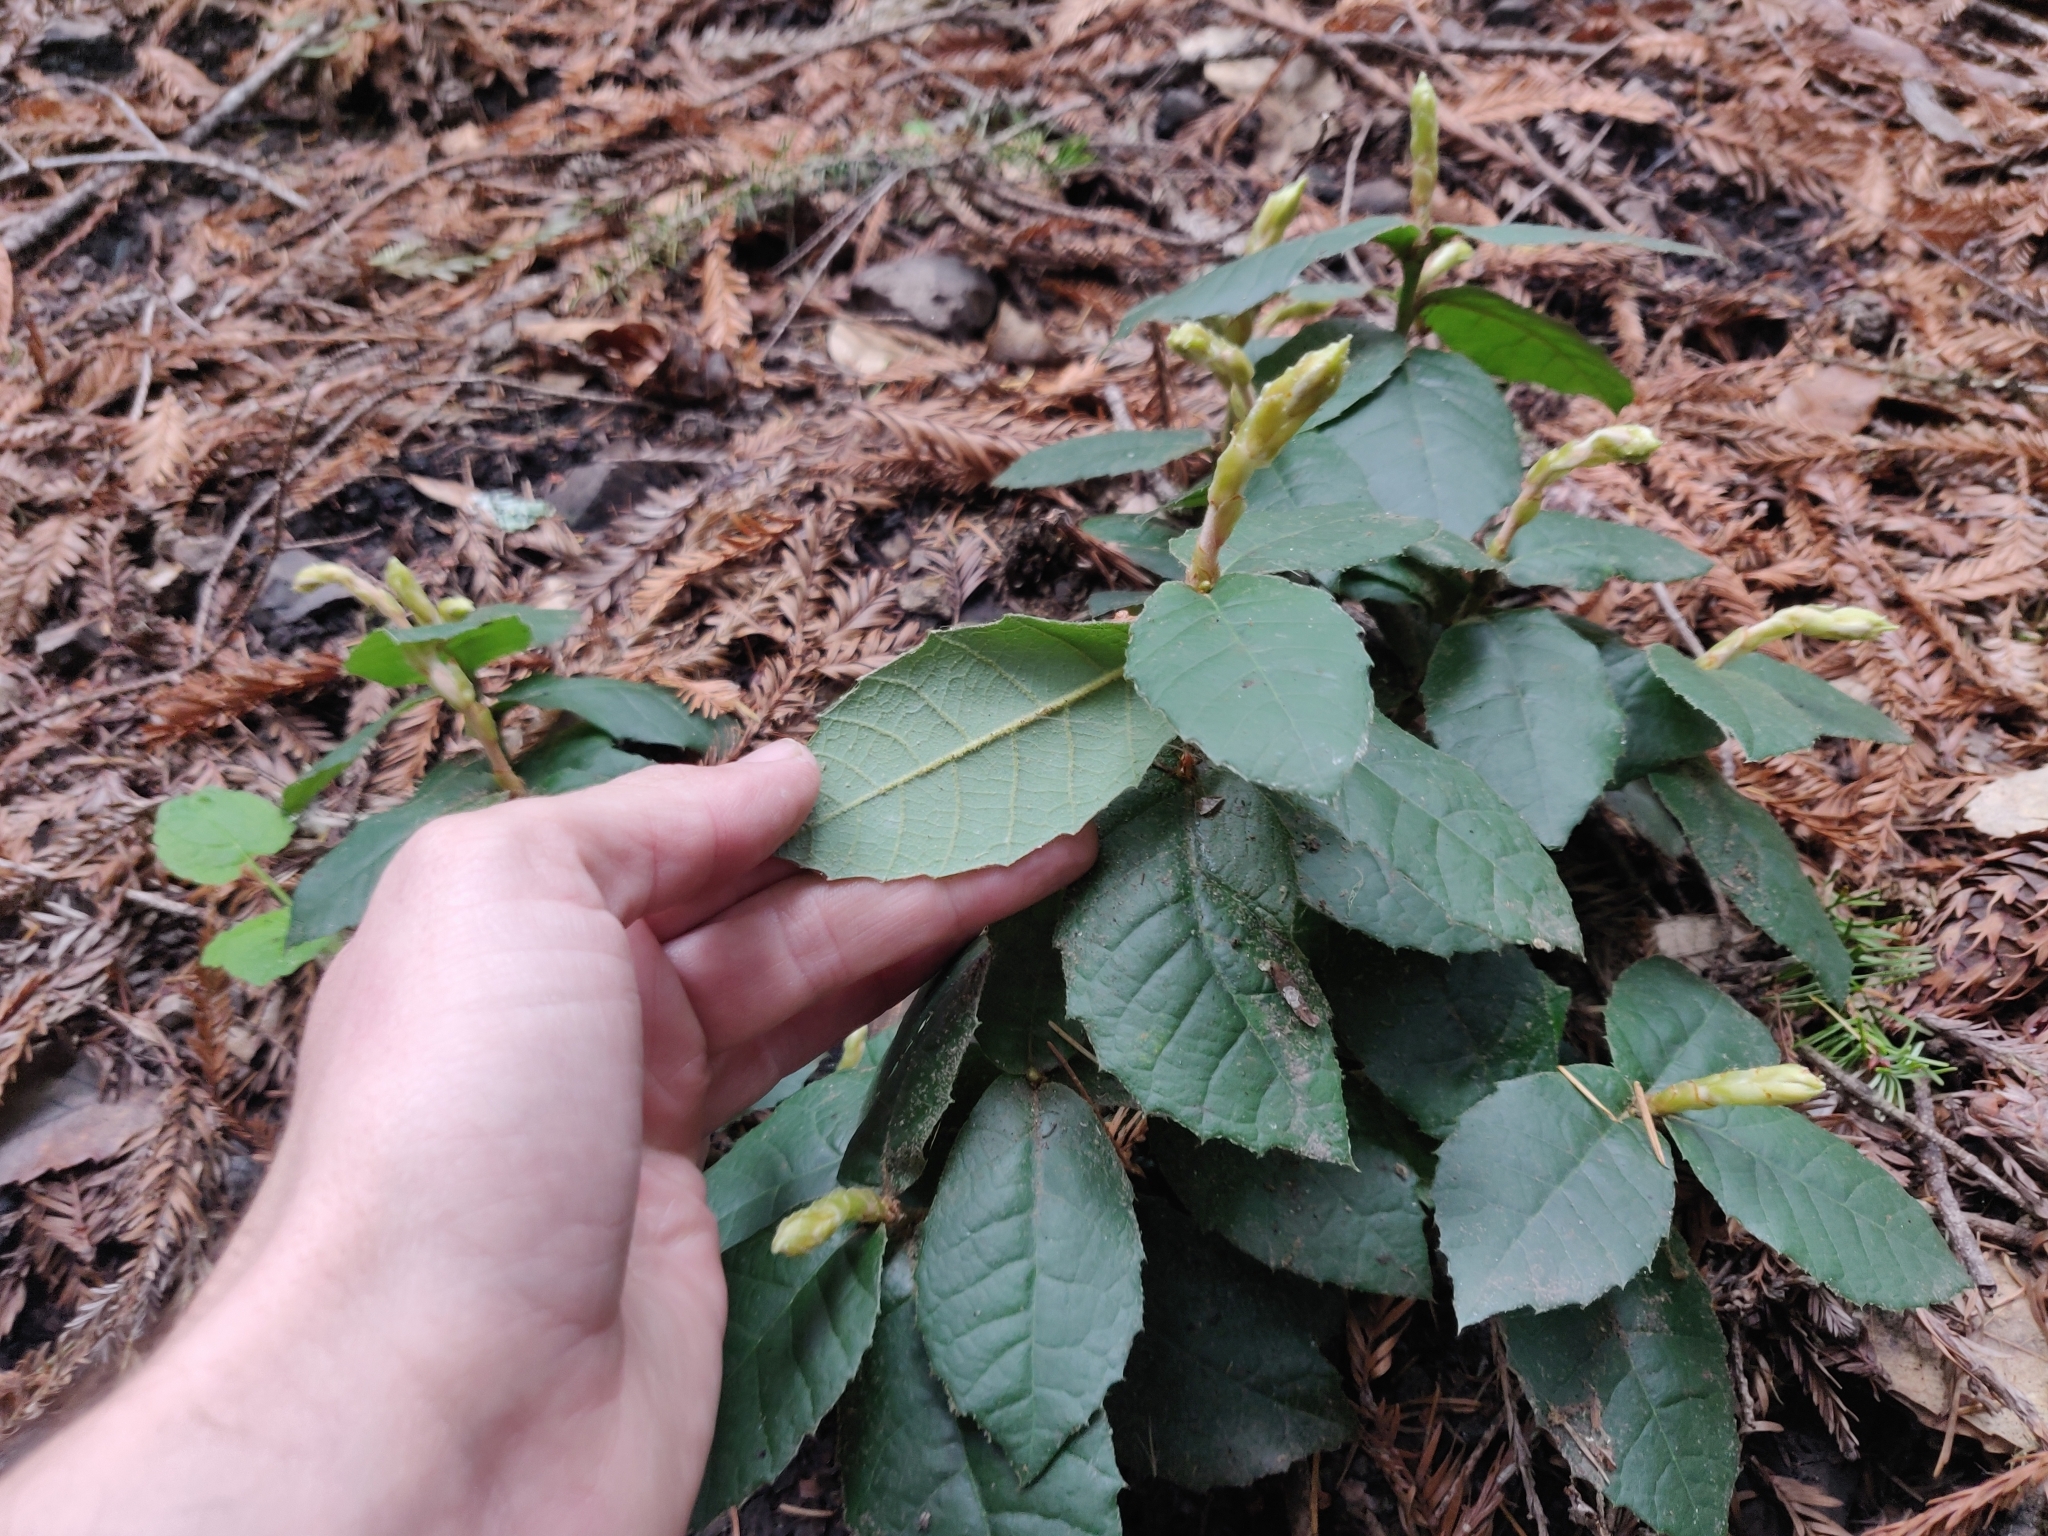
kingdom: Plantae
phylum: Tracheophyta
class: Magnoliopsida
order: Fagales
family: Fagaceae
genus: Notholithocarpus
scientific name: Notholithocarpus densiflorus
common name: Tan bark oak
